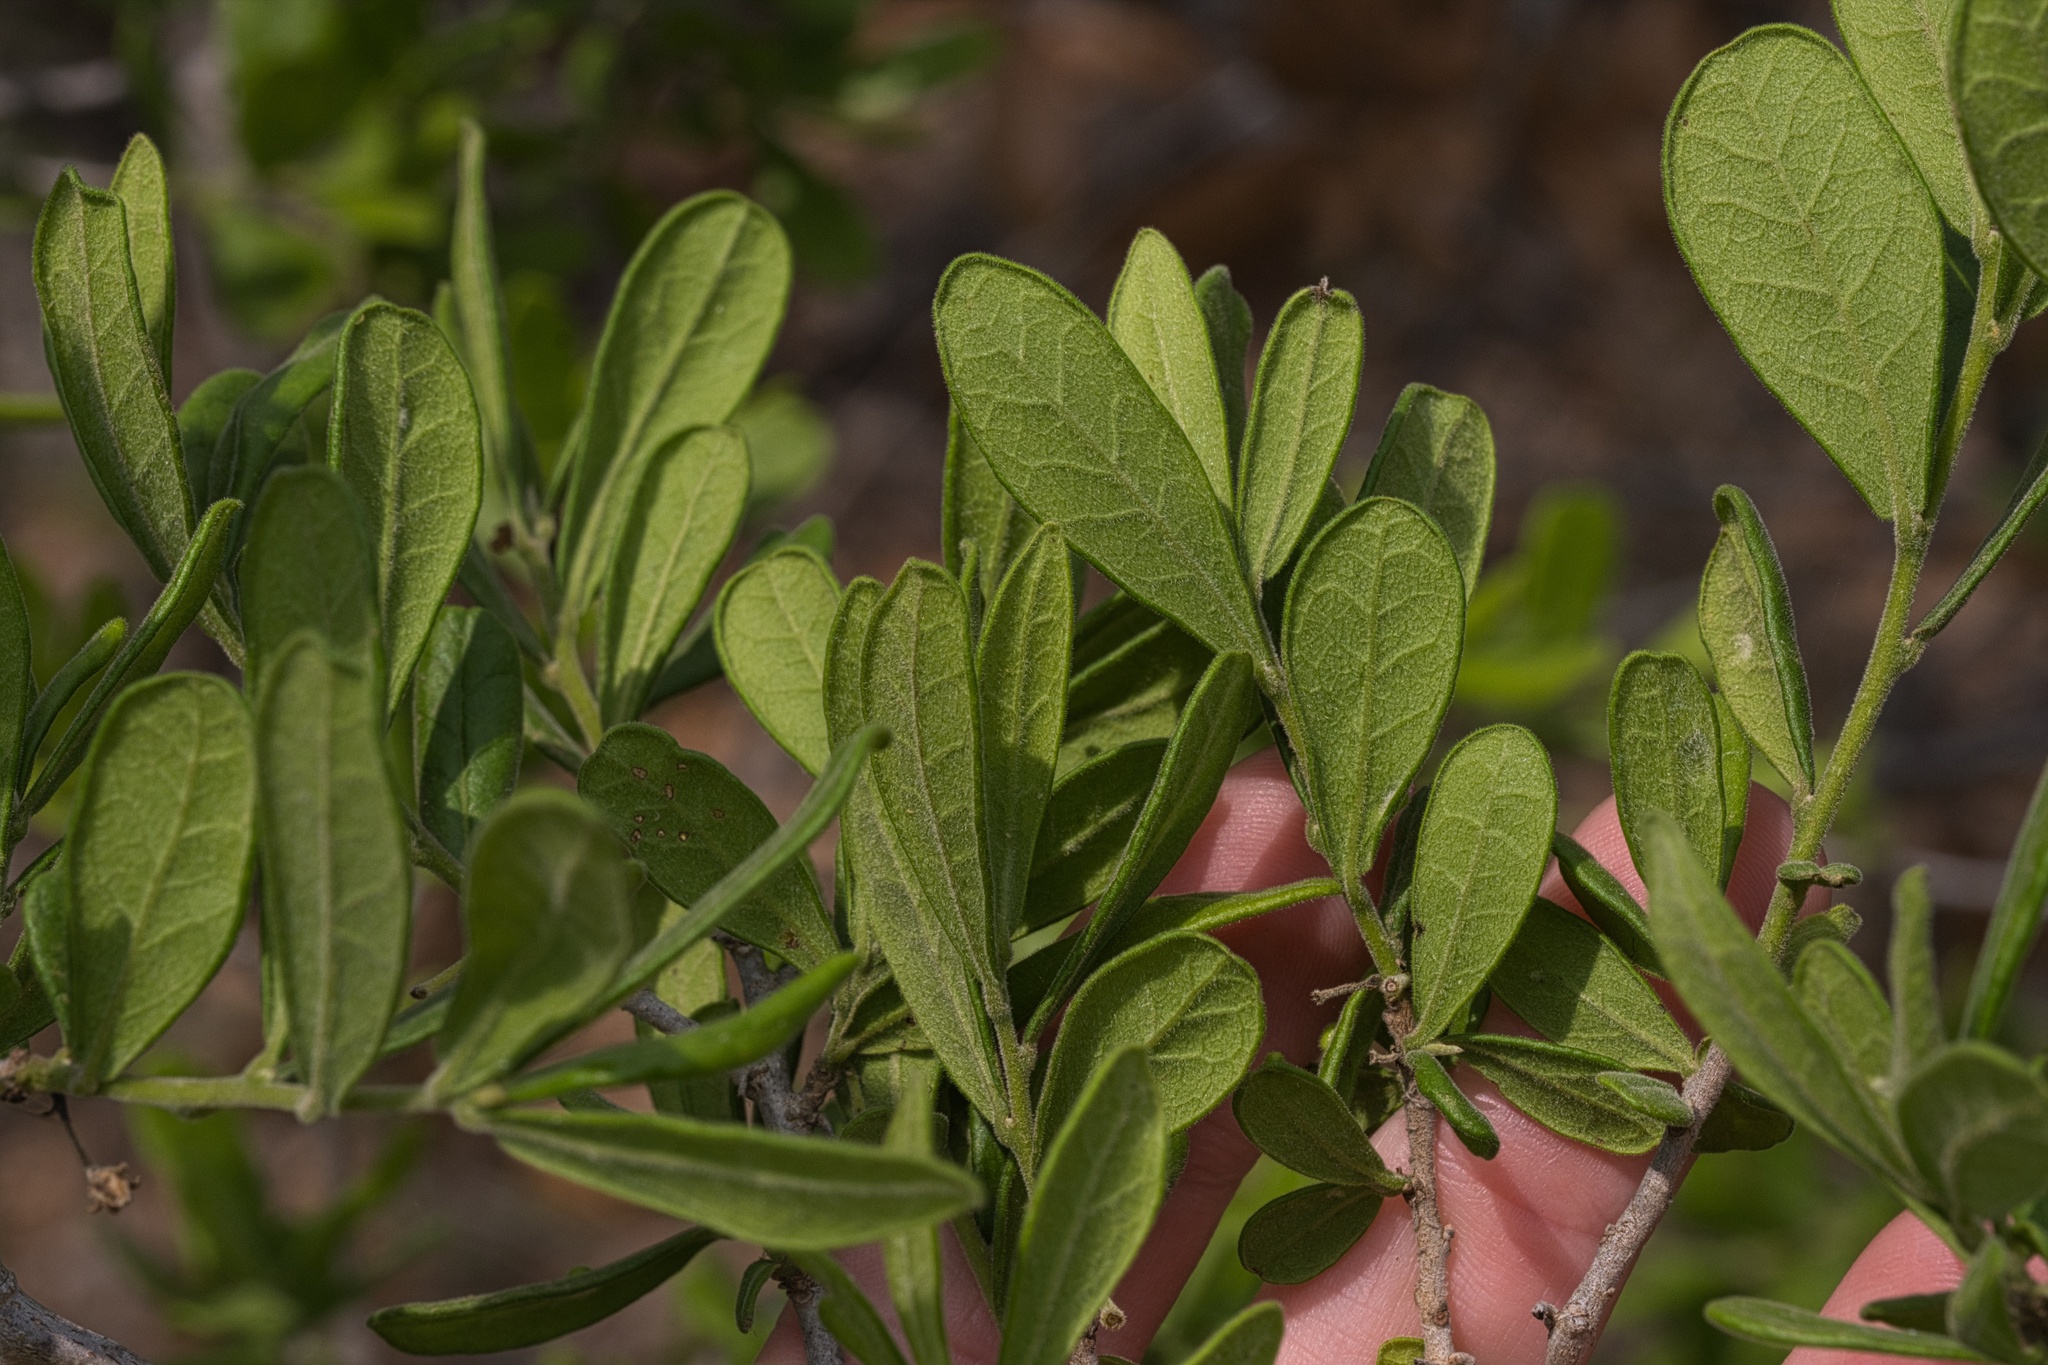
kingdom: Plantae
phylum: Tracheophyta
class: Magnoliopsida
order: Ericales
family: Ebenaceae
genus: Diospyros
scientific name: Diospyros texana
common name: Texas persimmon
